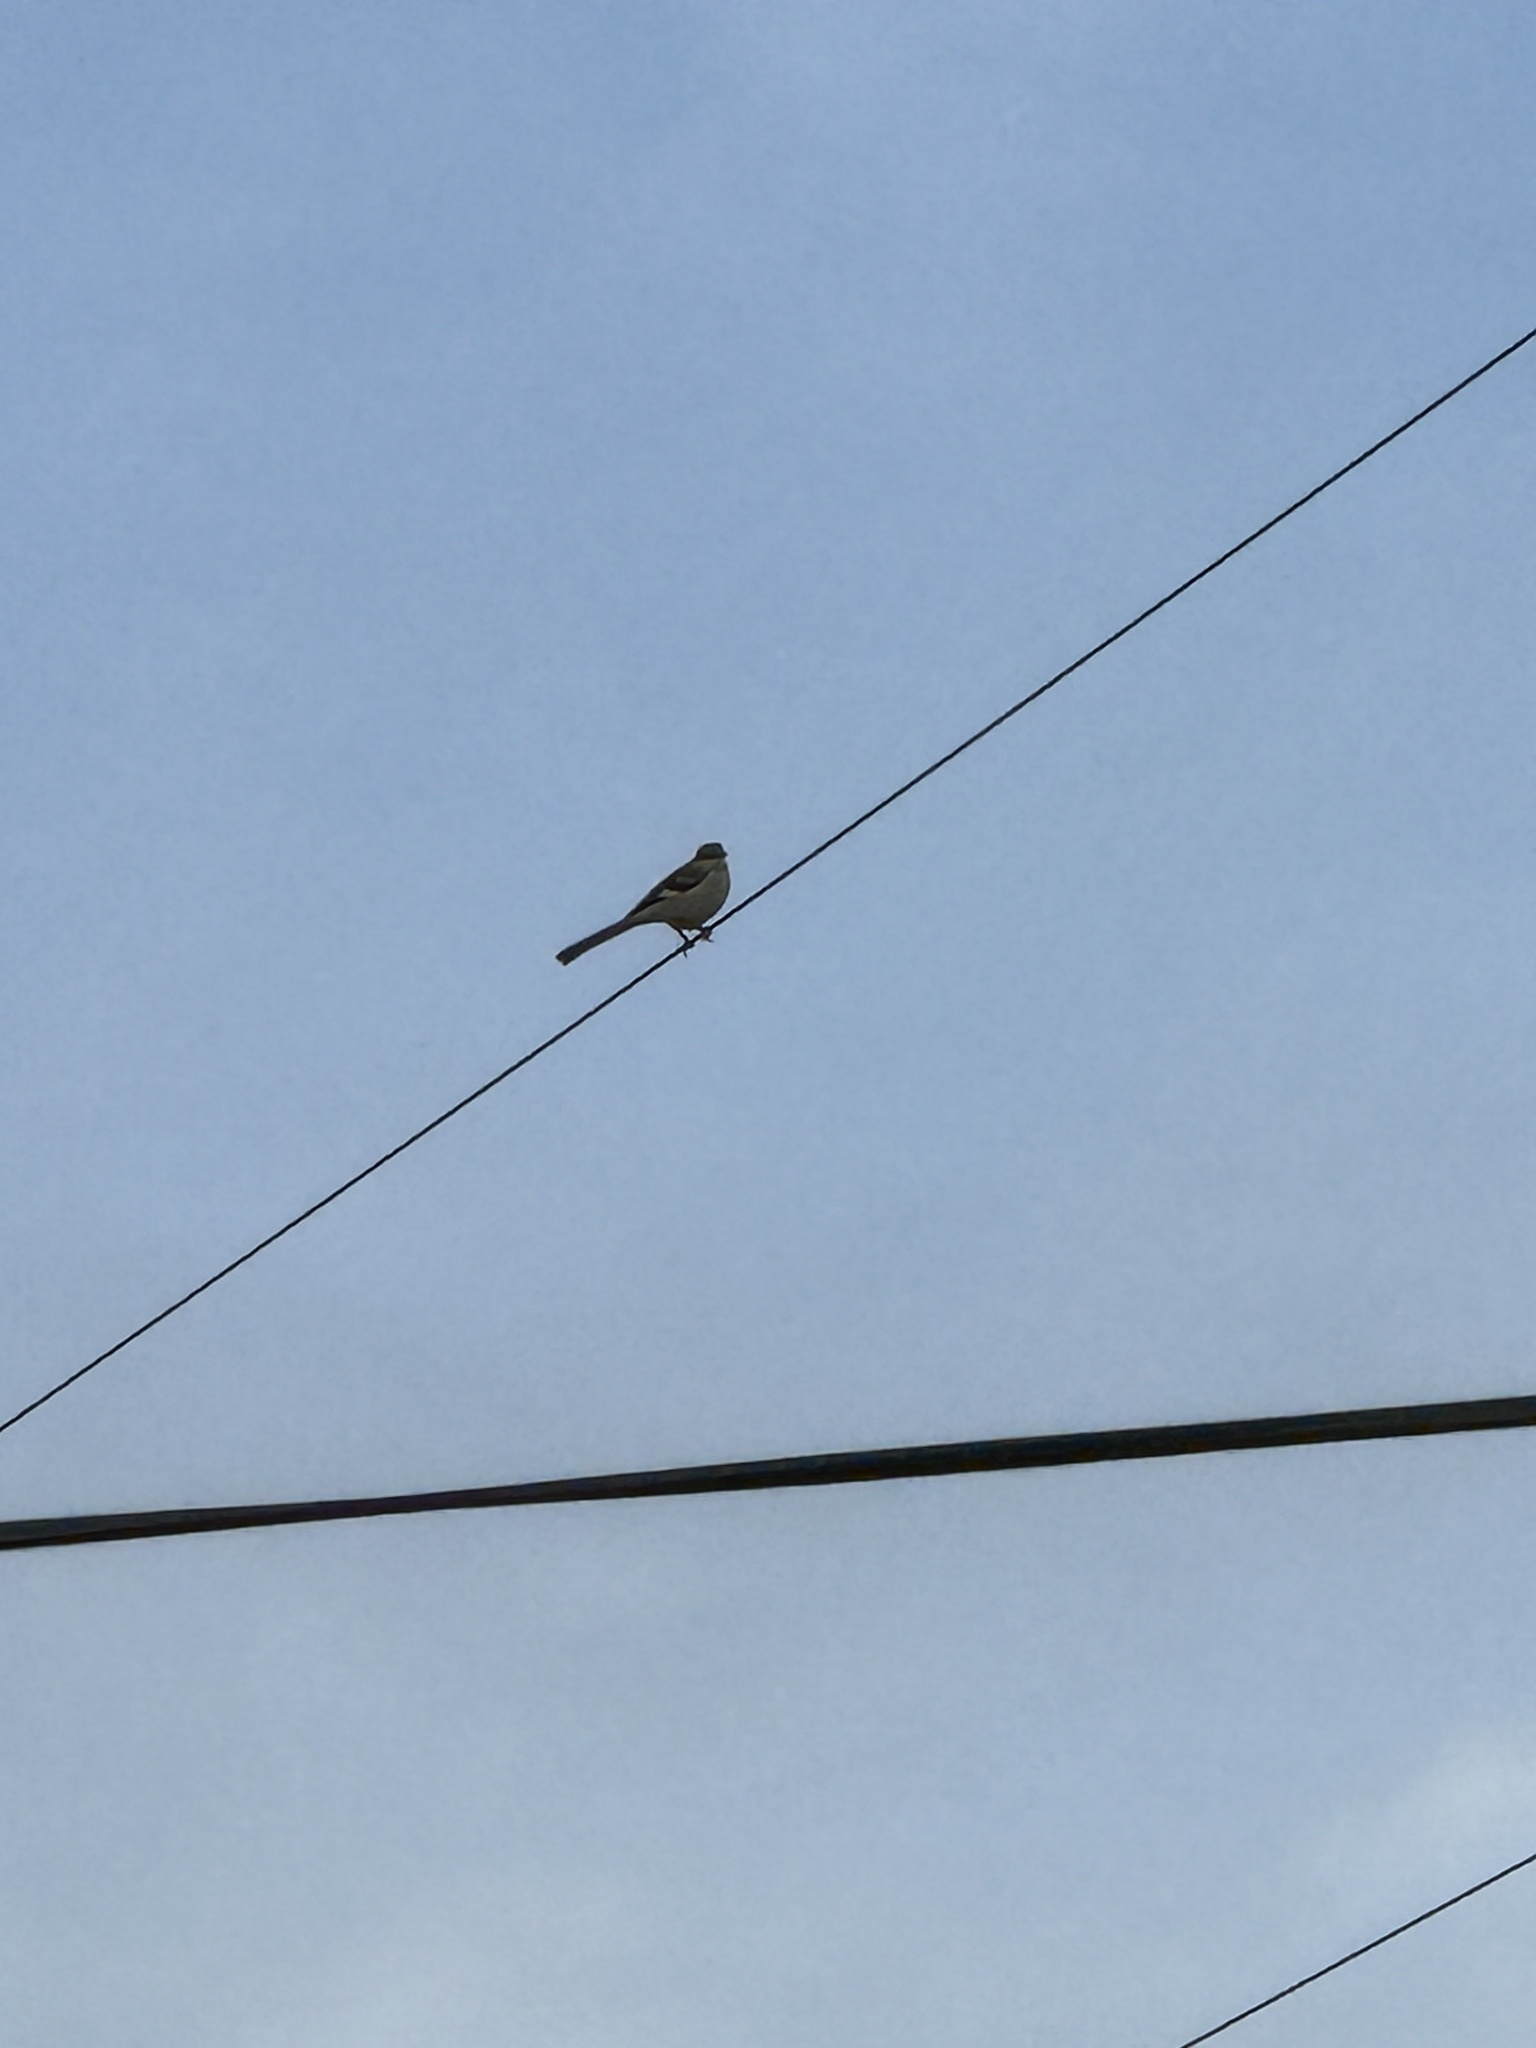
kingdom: Animalia
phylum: Chordata
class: Aves
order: Passeriformes
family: Mimidae
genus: Mimus
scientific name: Mimus polyglottos
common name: Northern mockingbird
